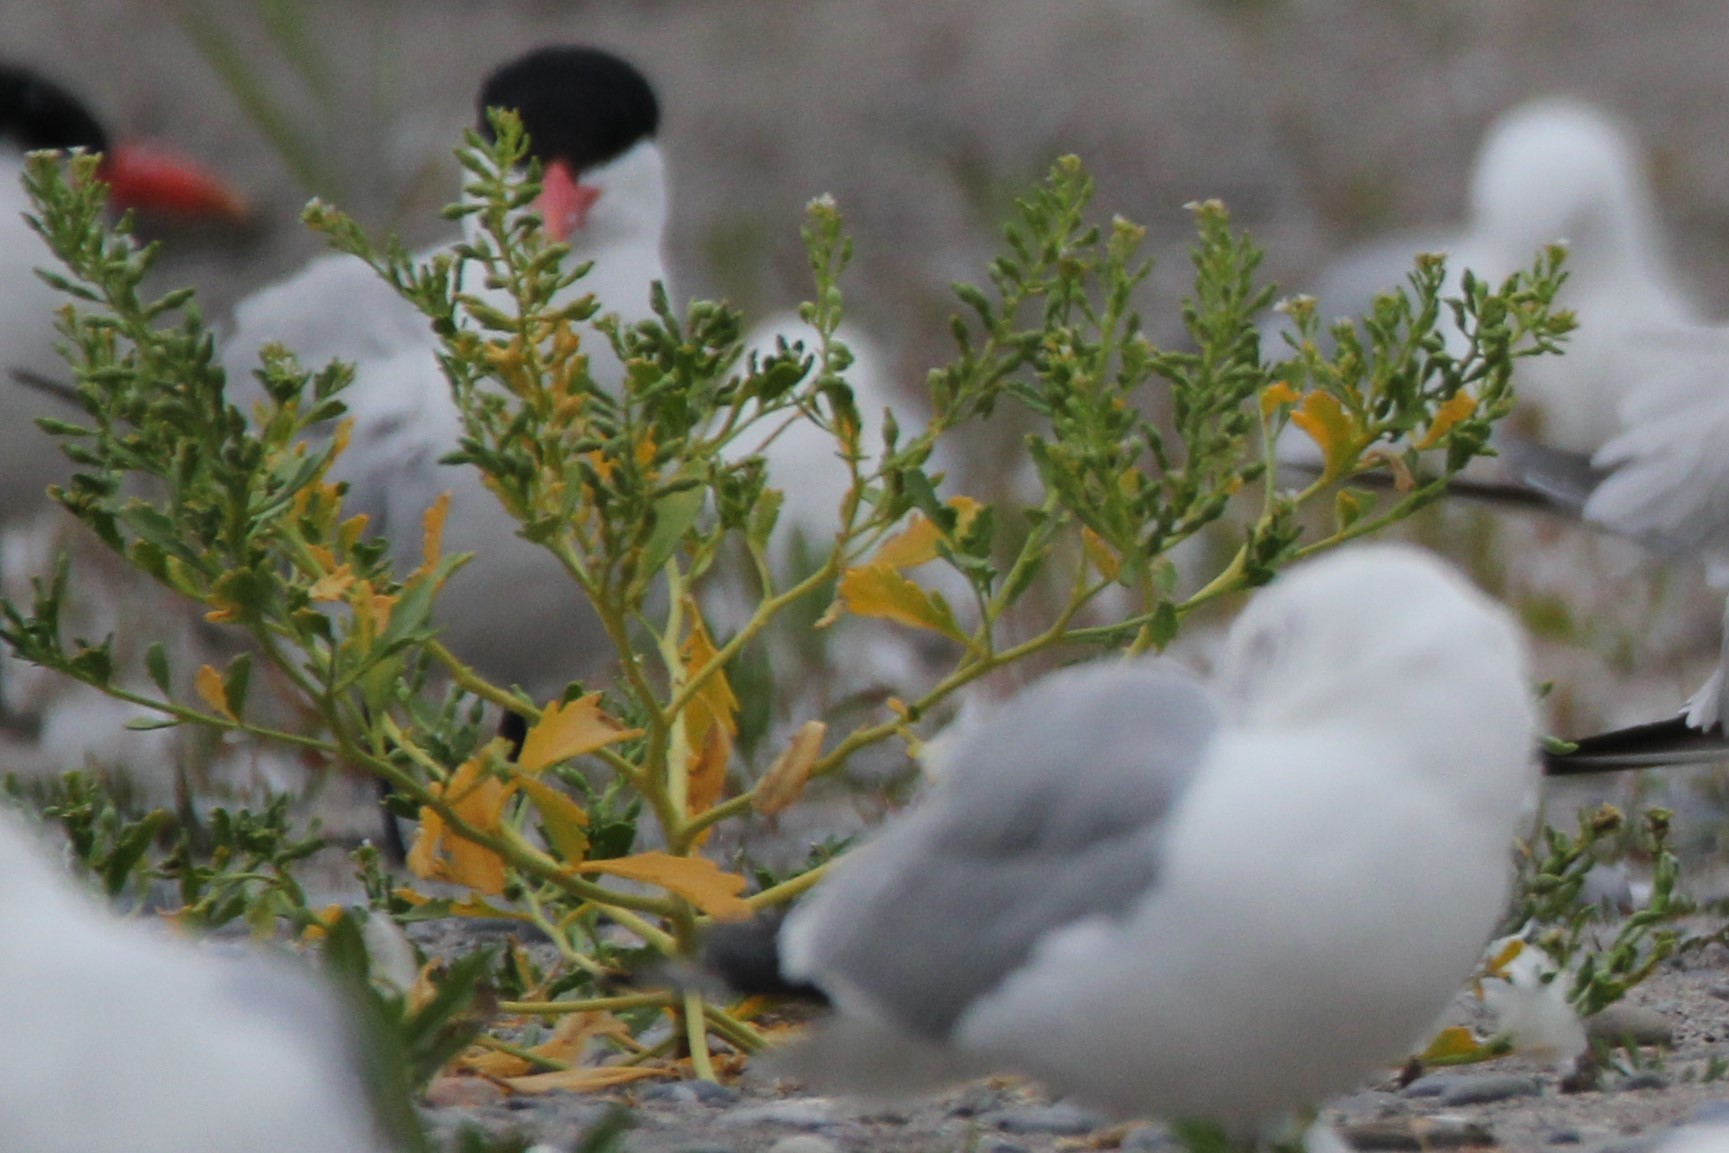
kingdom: Plantae
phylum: Tracheophyta
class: Magnoliopsida
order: Brassicales
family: Brassicaceae
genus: Cakile
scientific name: Cakile edentula
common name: American sea rocket
